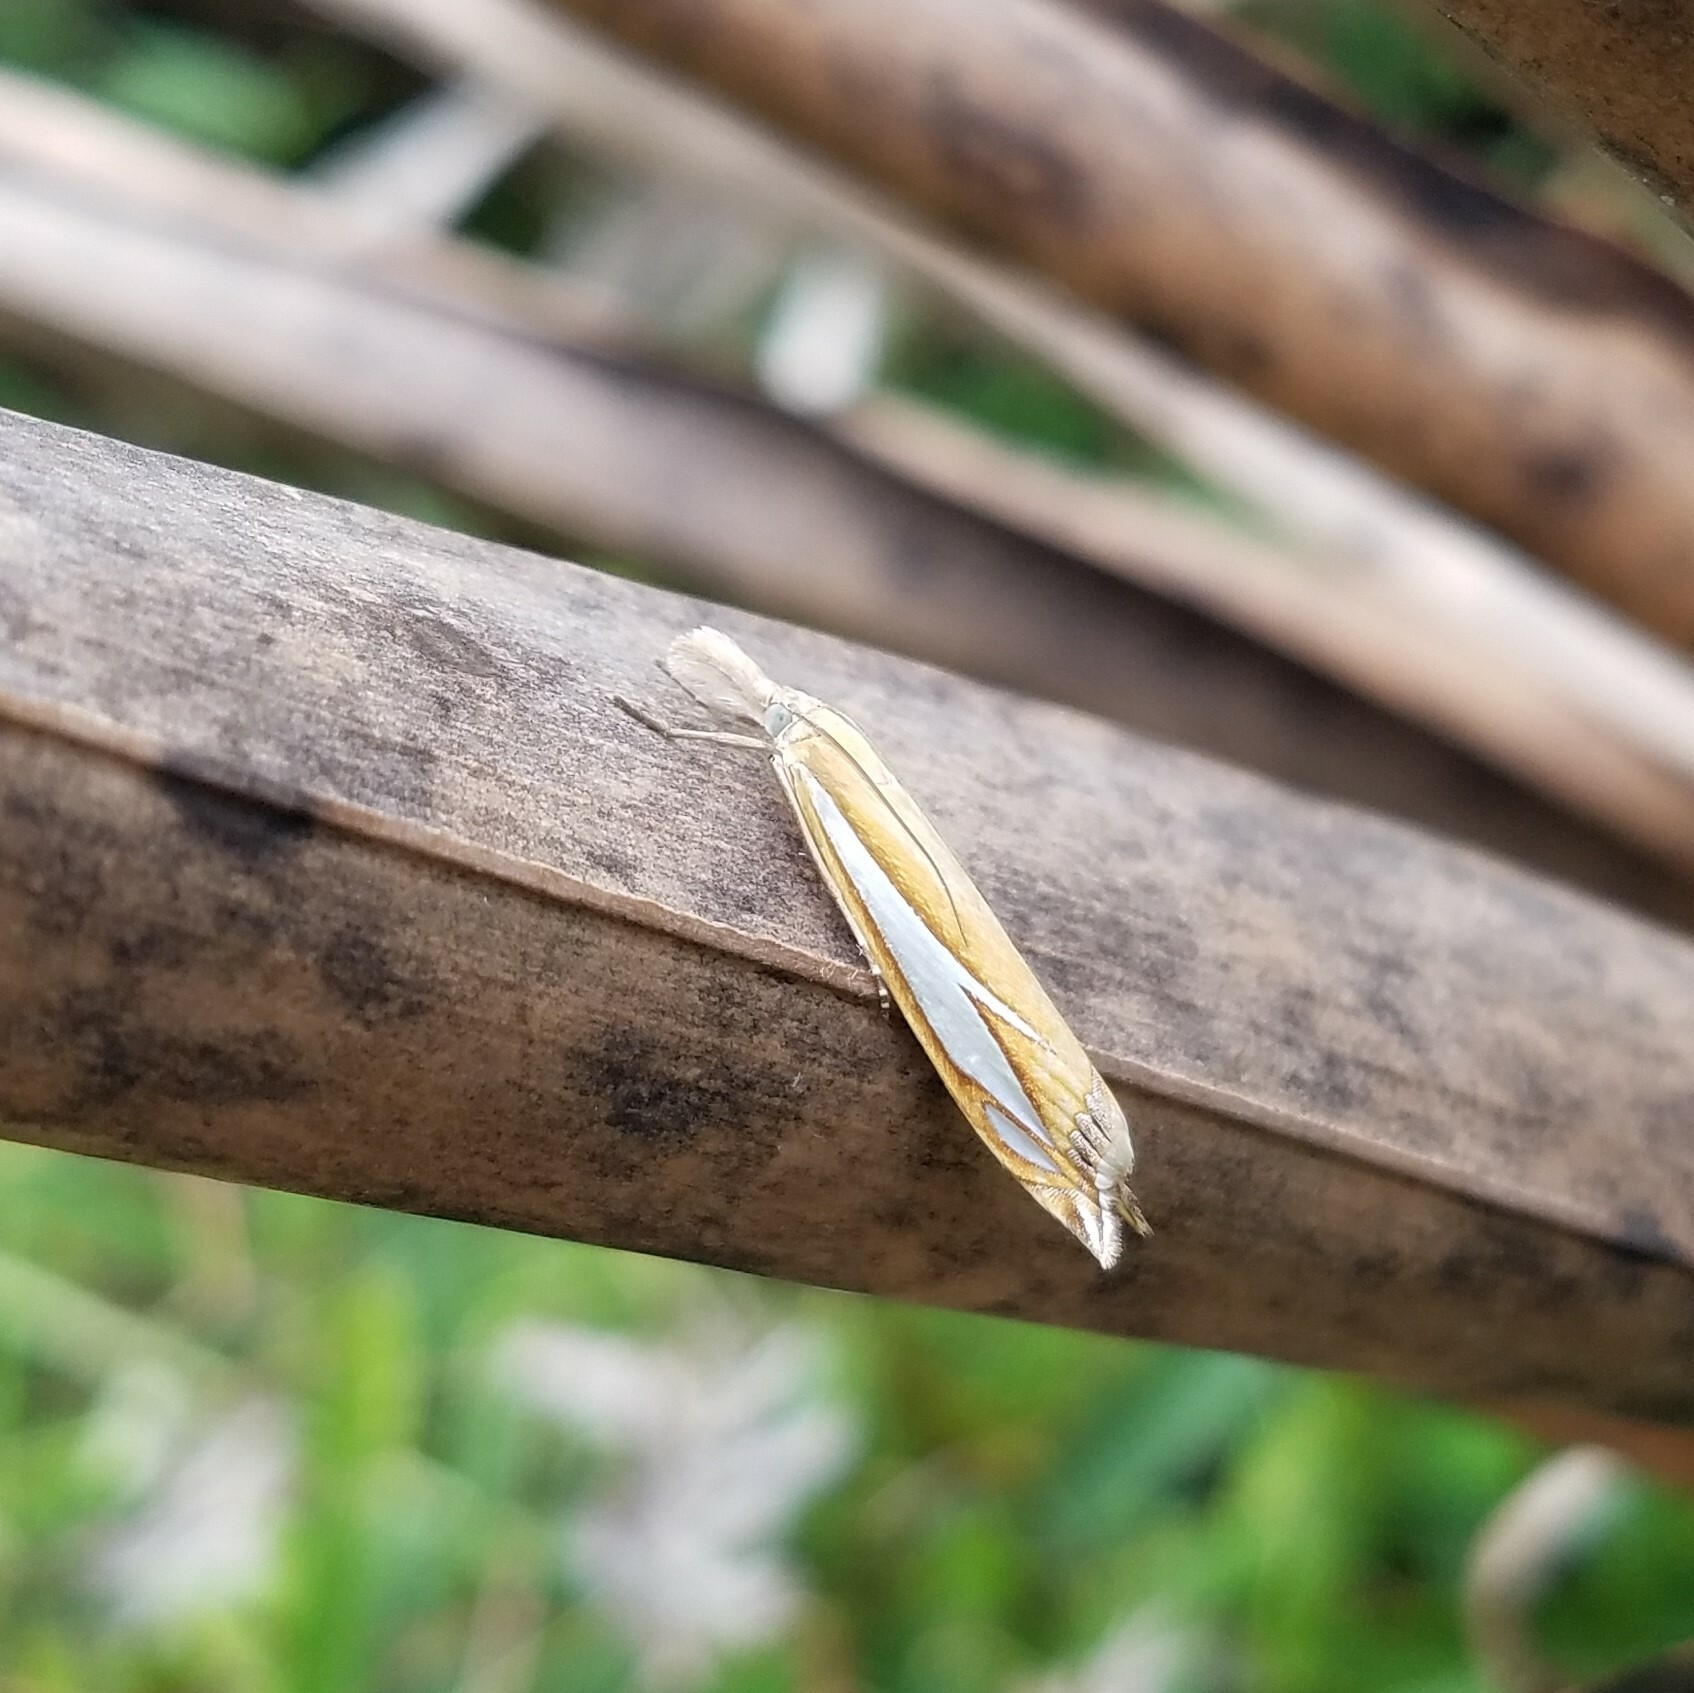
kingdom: Animalia
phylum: Arthropoda
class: Insecta
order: Lepidoptera
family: Crambidae
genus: Crambus
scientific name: Crambus satrapellus
